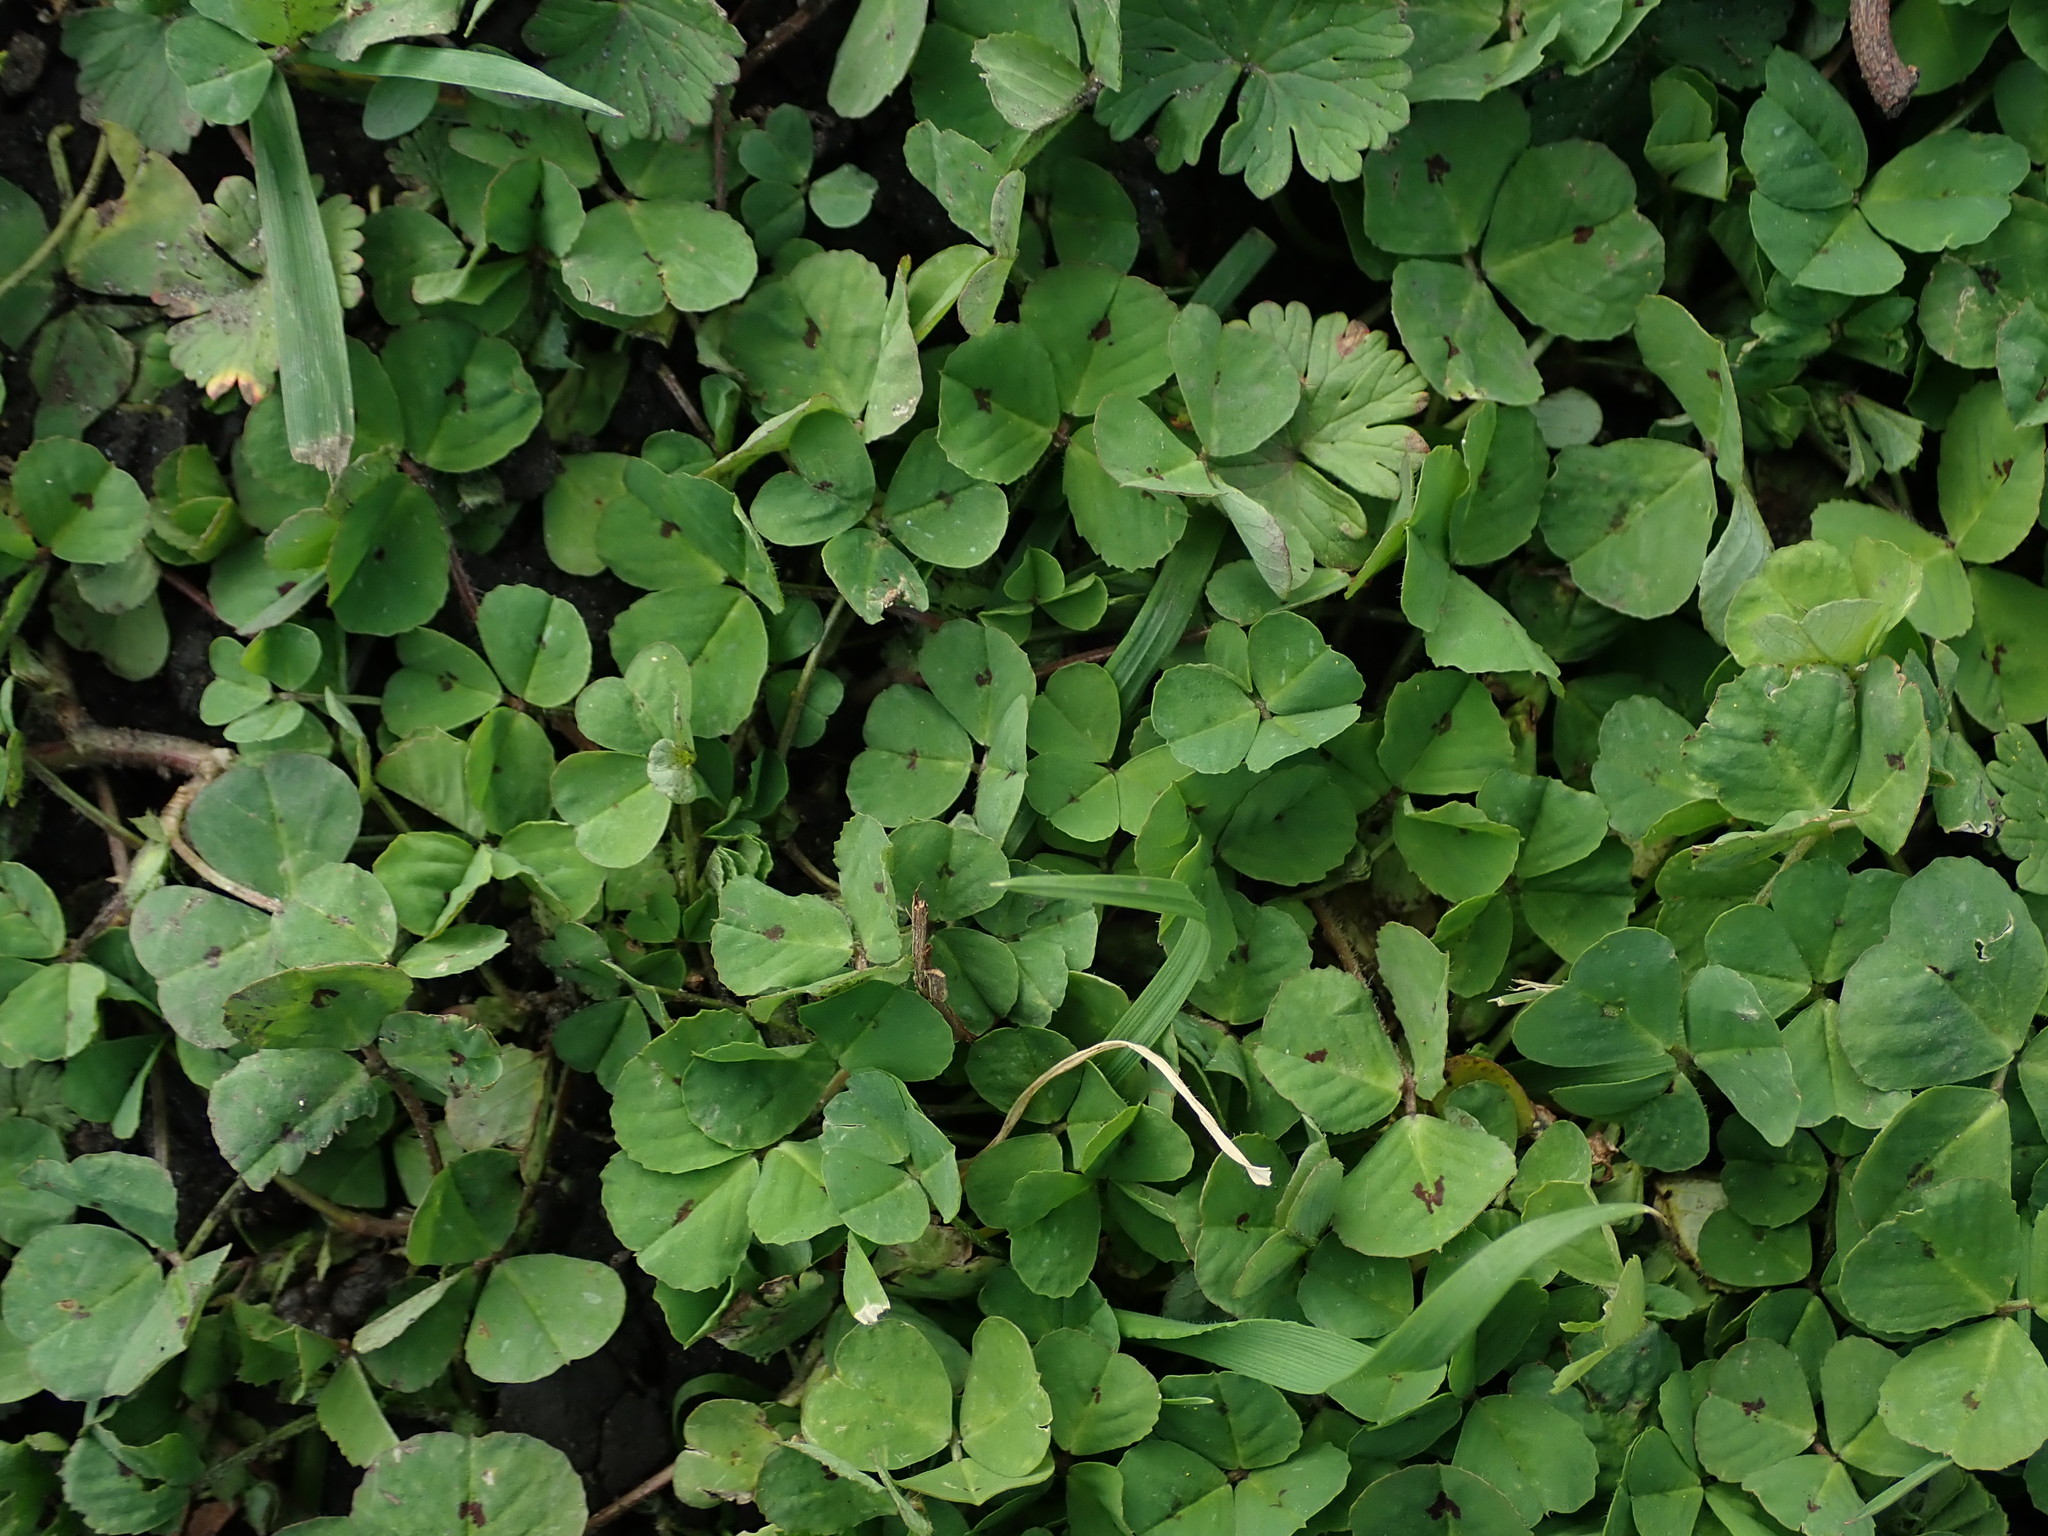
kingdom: Plantae
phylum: Tracheophyta
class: Magnoliopsida
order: Fabales
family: Fabaceae
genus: Medicago
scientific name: Medicago arabica
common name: Spotted medick
